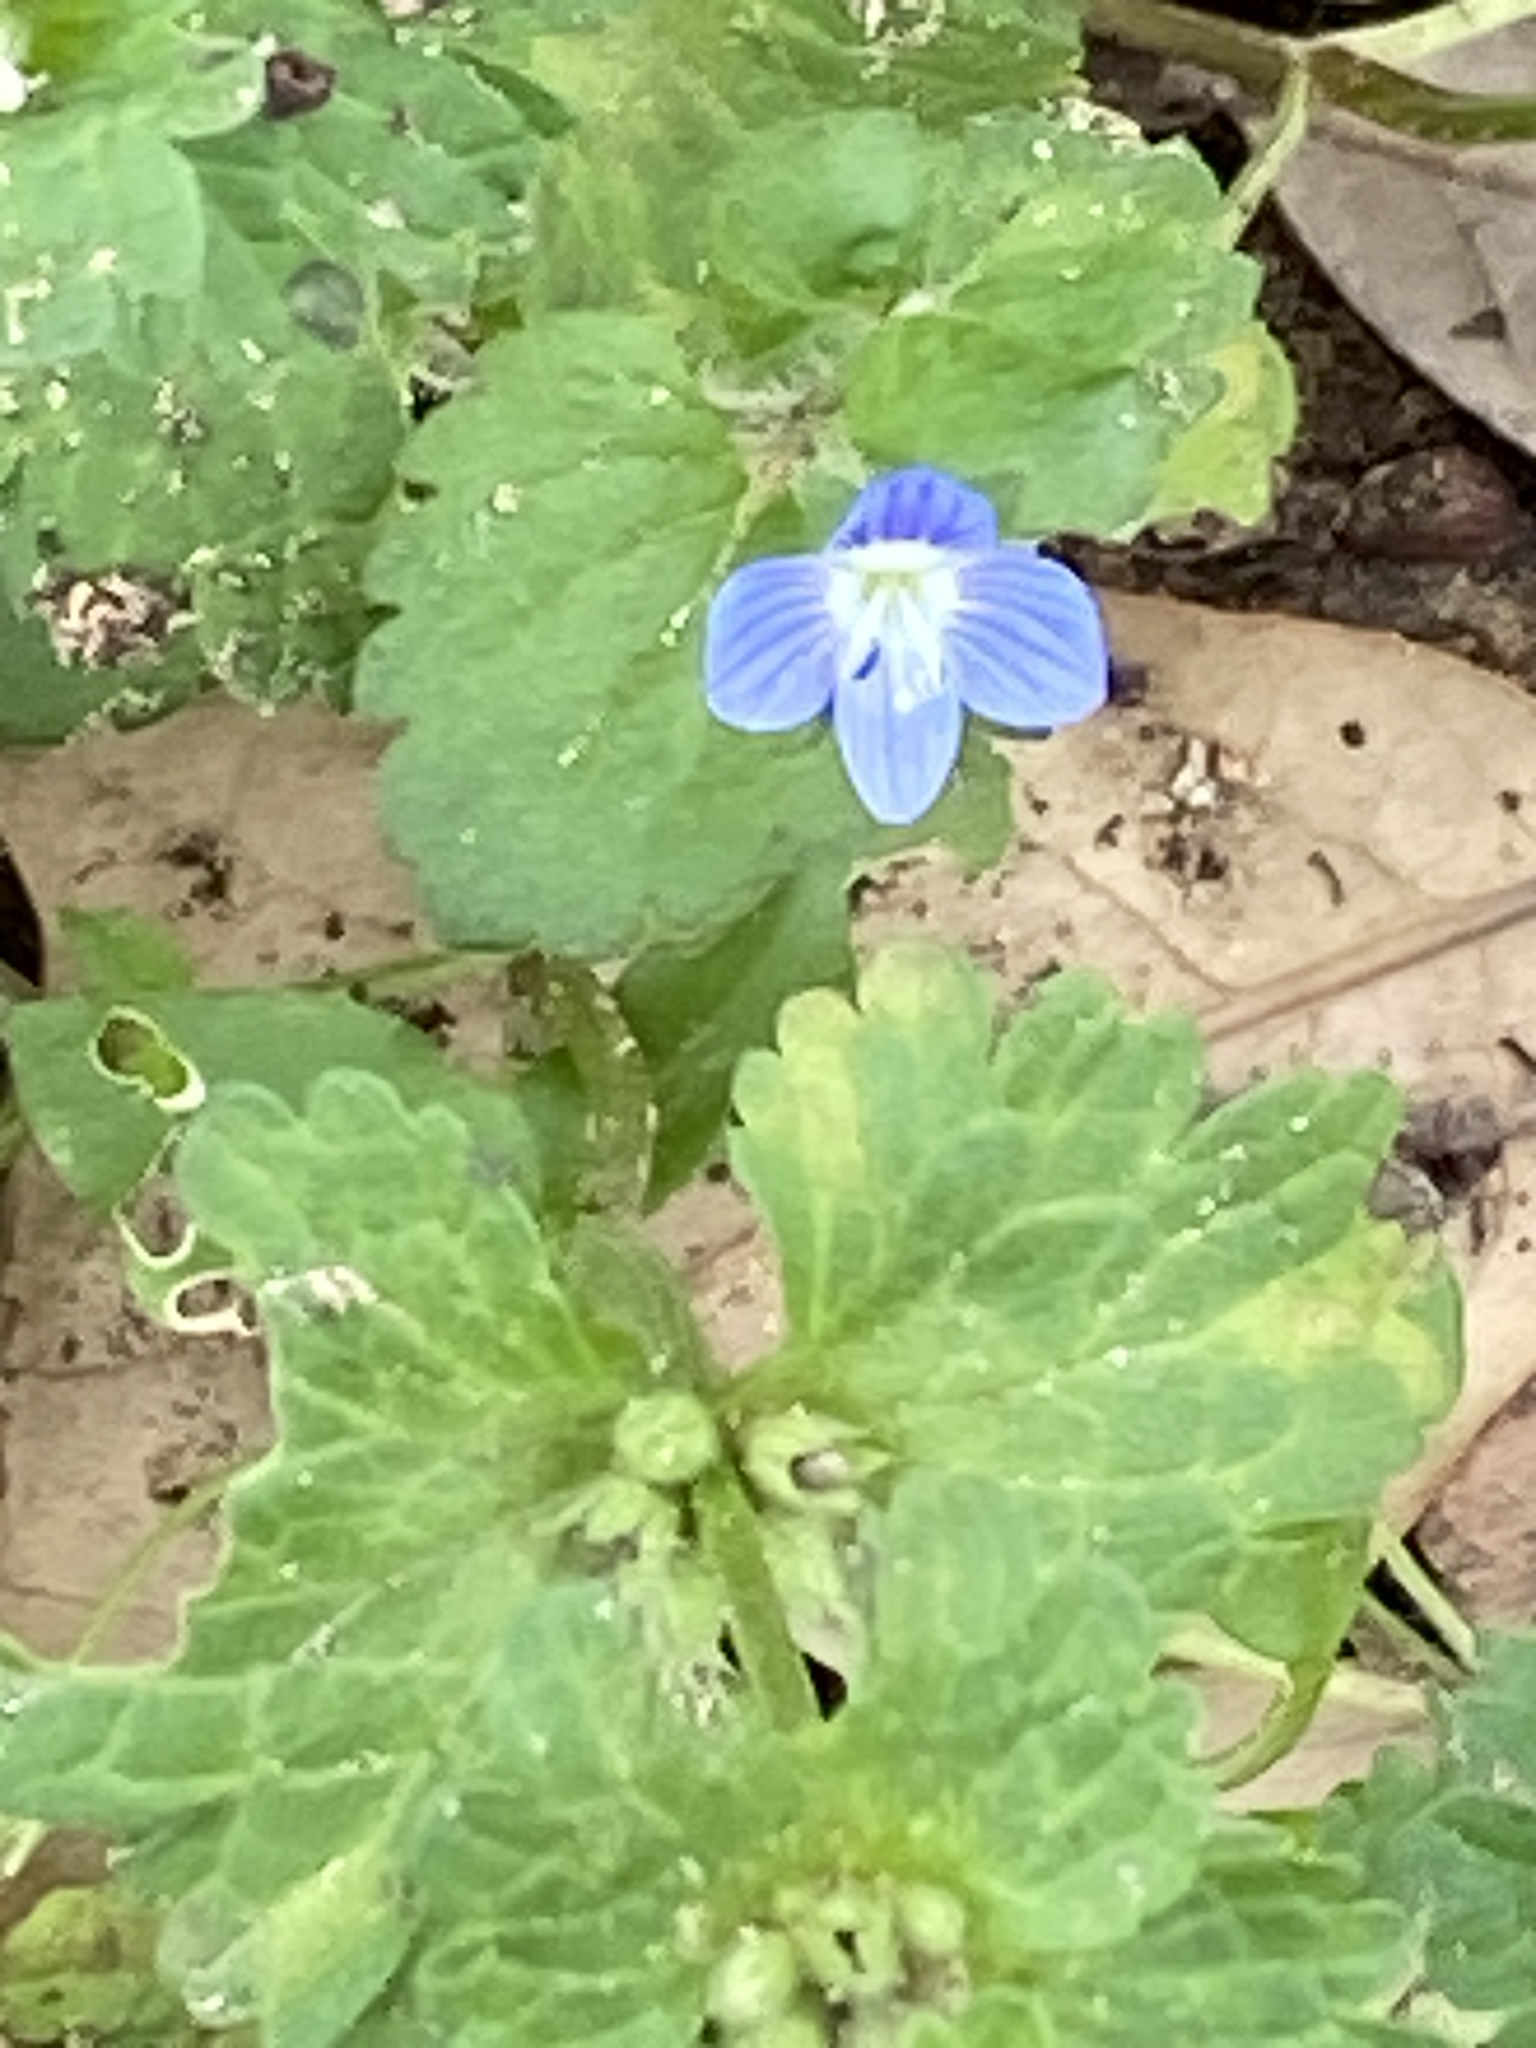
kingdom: Plantae
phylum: Tracheophyta
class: Magnoliopsida
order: Lamiales
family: Plantaginaceae
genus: Veronica
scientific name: Veronica persica
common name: Common field-speedwell
